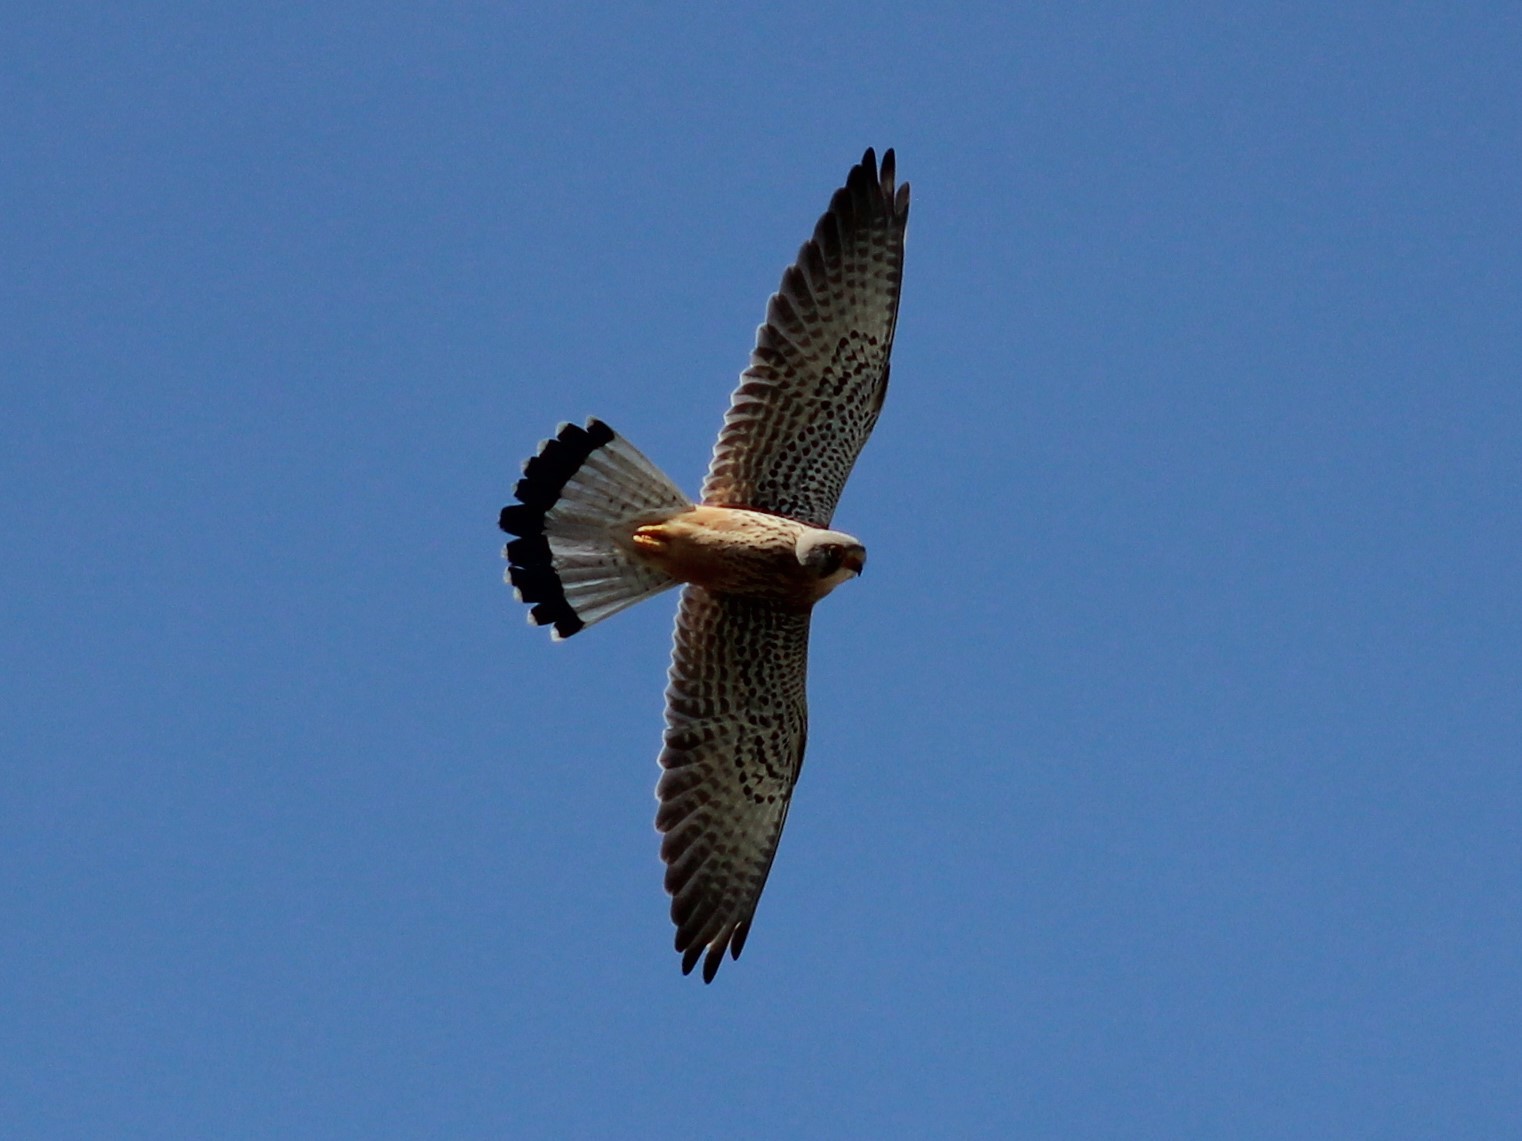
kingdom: Animalia
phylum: Chordata
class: Aves
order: Falconiformes
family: Falconidae
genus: Falco
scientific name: Falco tinnunculus
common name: Common kestrel
